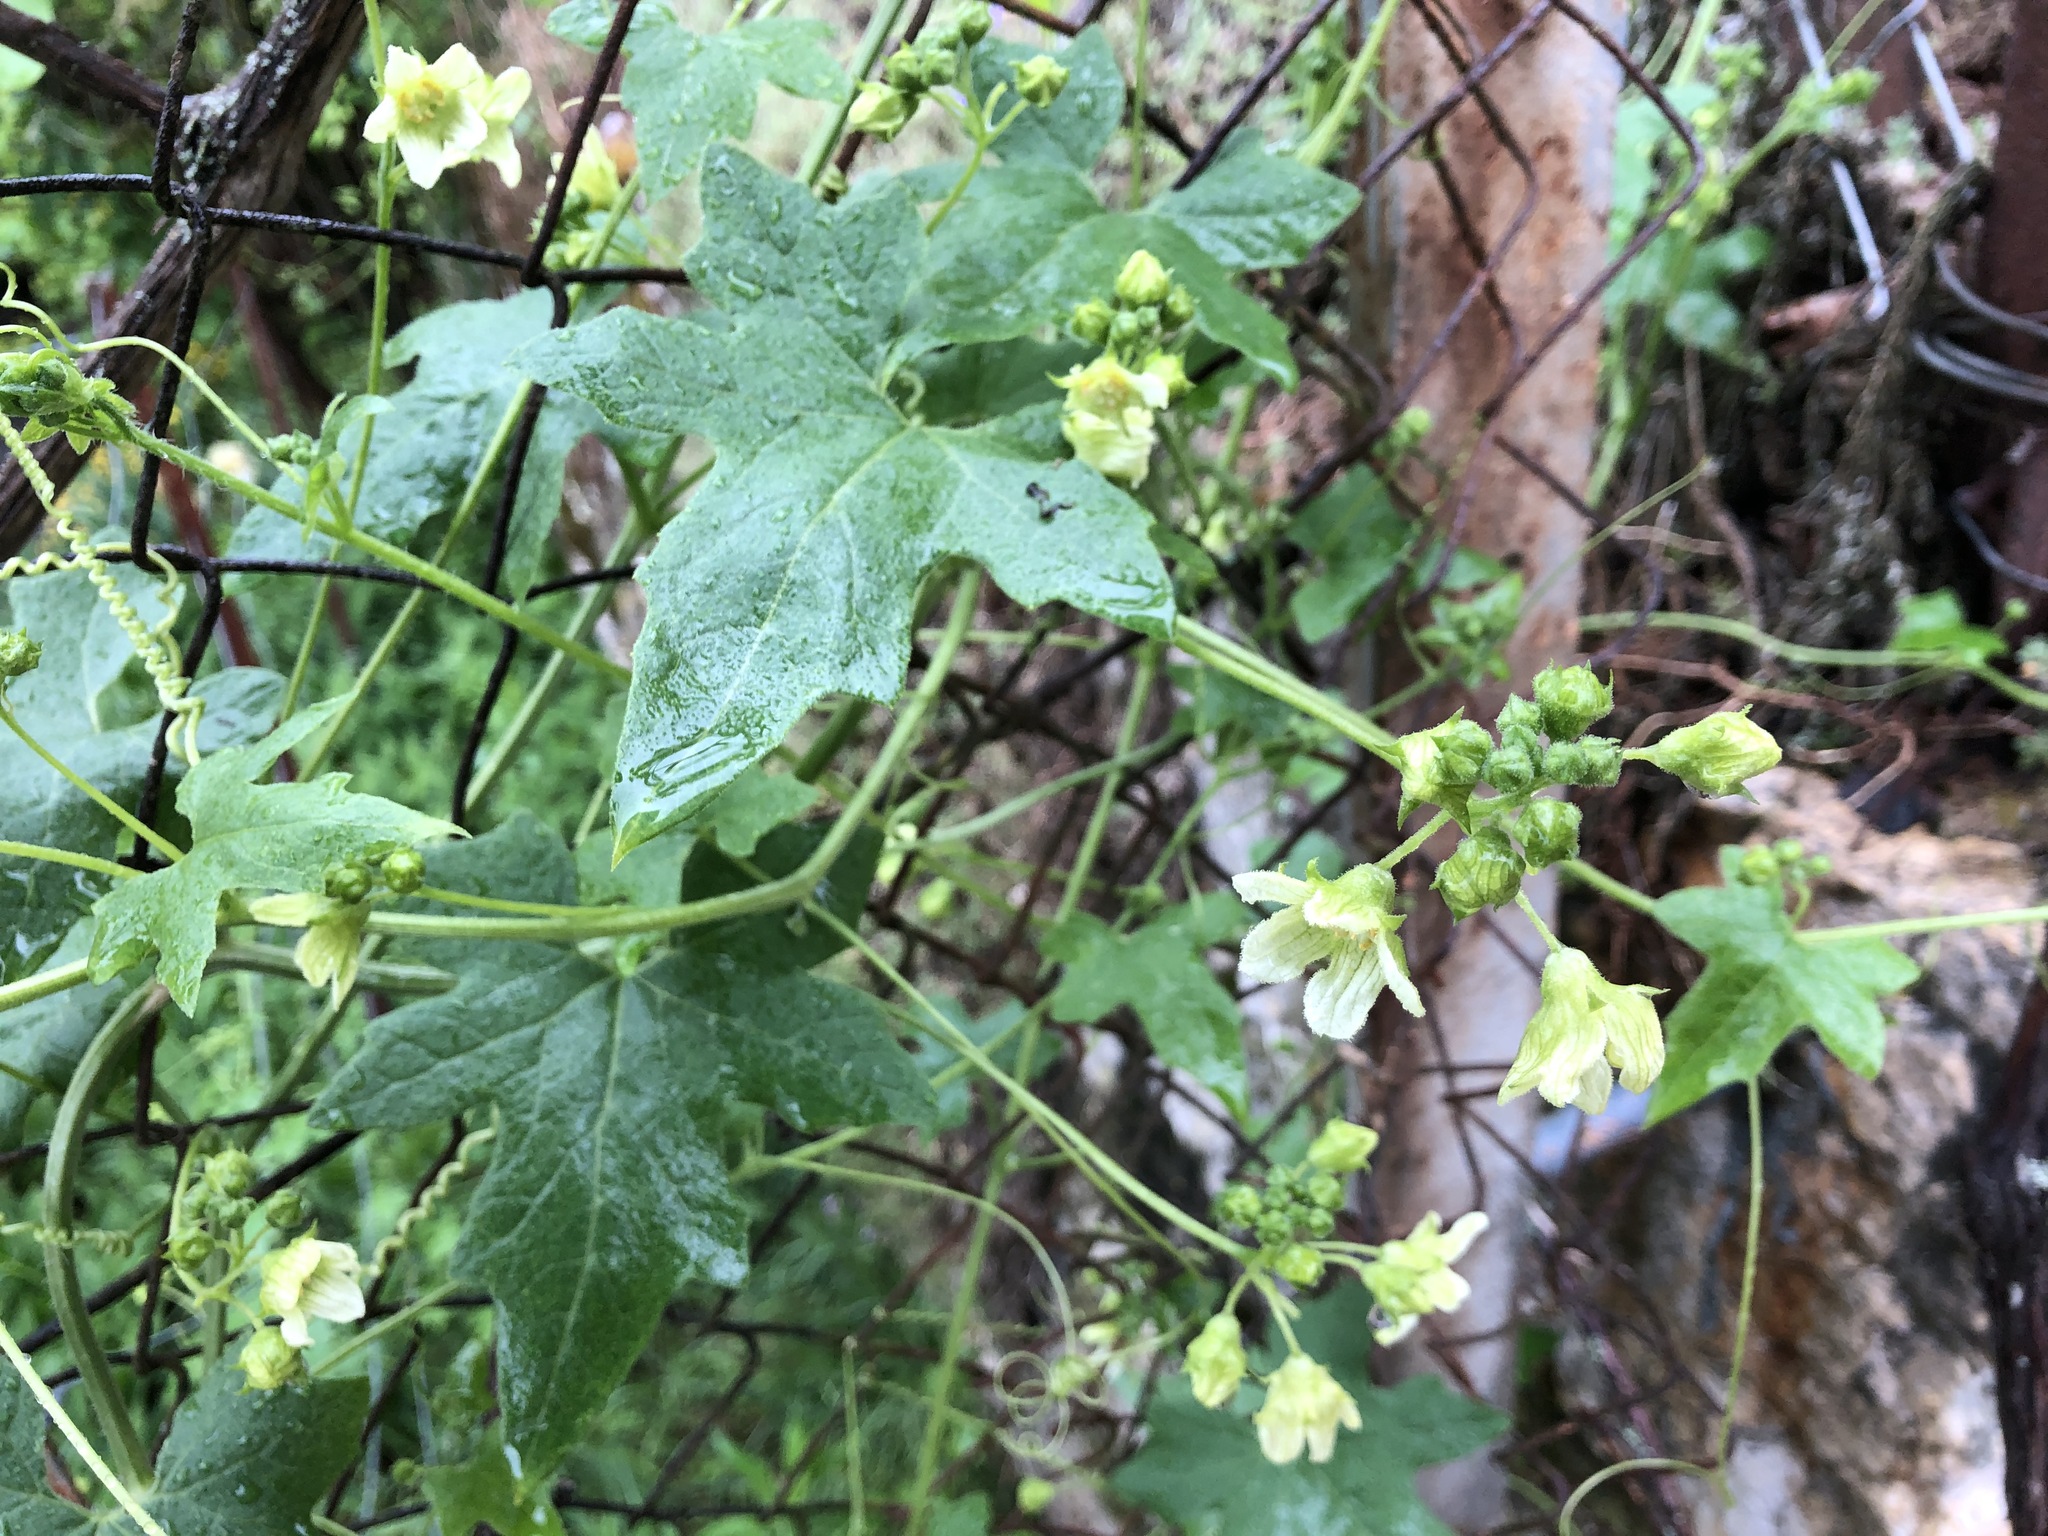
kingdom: Plantae
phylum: Tracheophyta
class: Magnoliopsida
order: Cucurbitales
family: Cucurbitaceae
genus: Bryonia
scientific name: Bryonia cretica
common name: Cretan bryony
